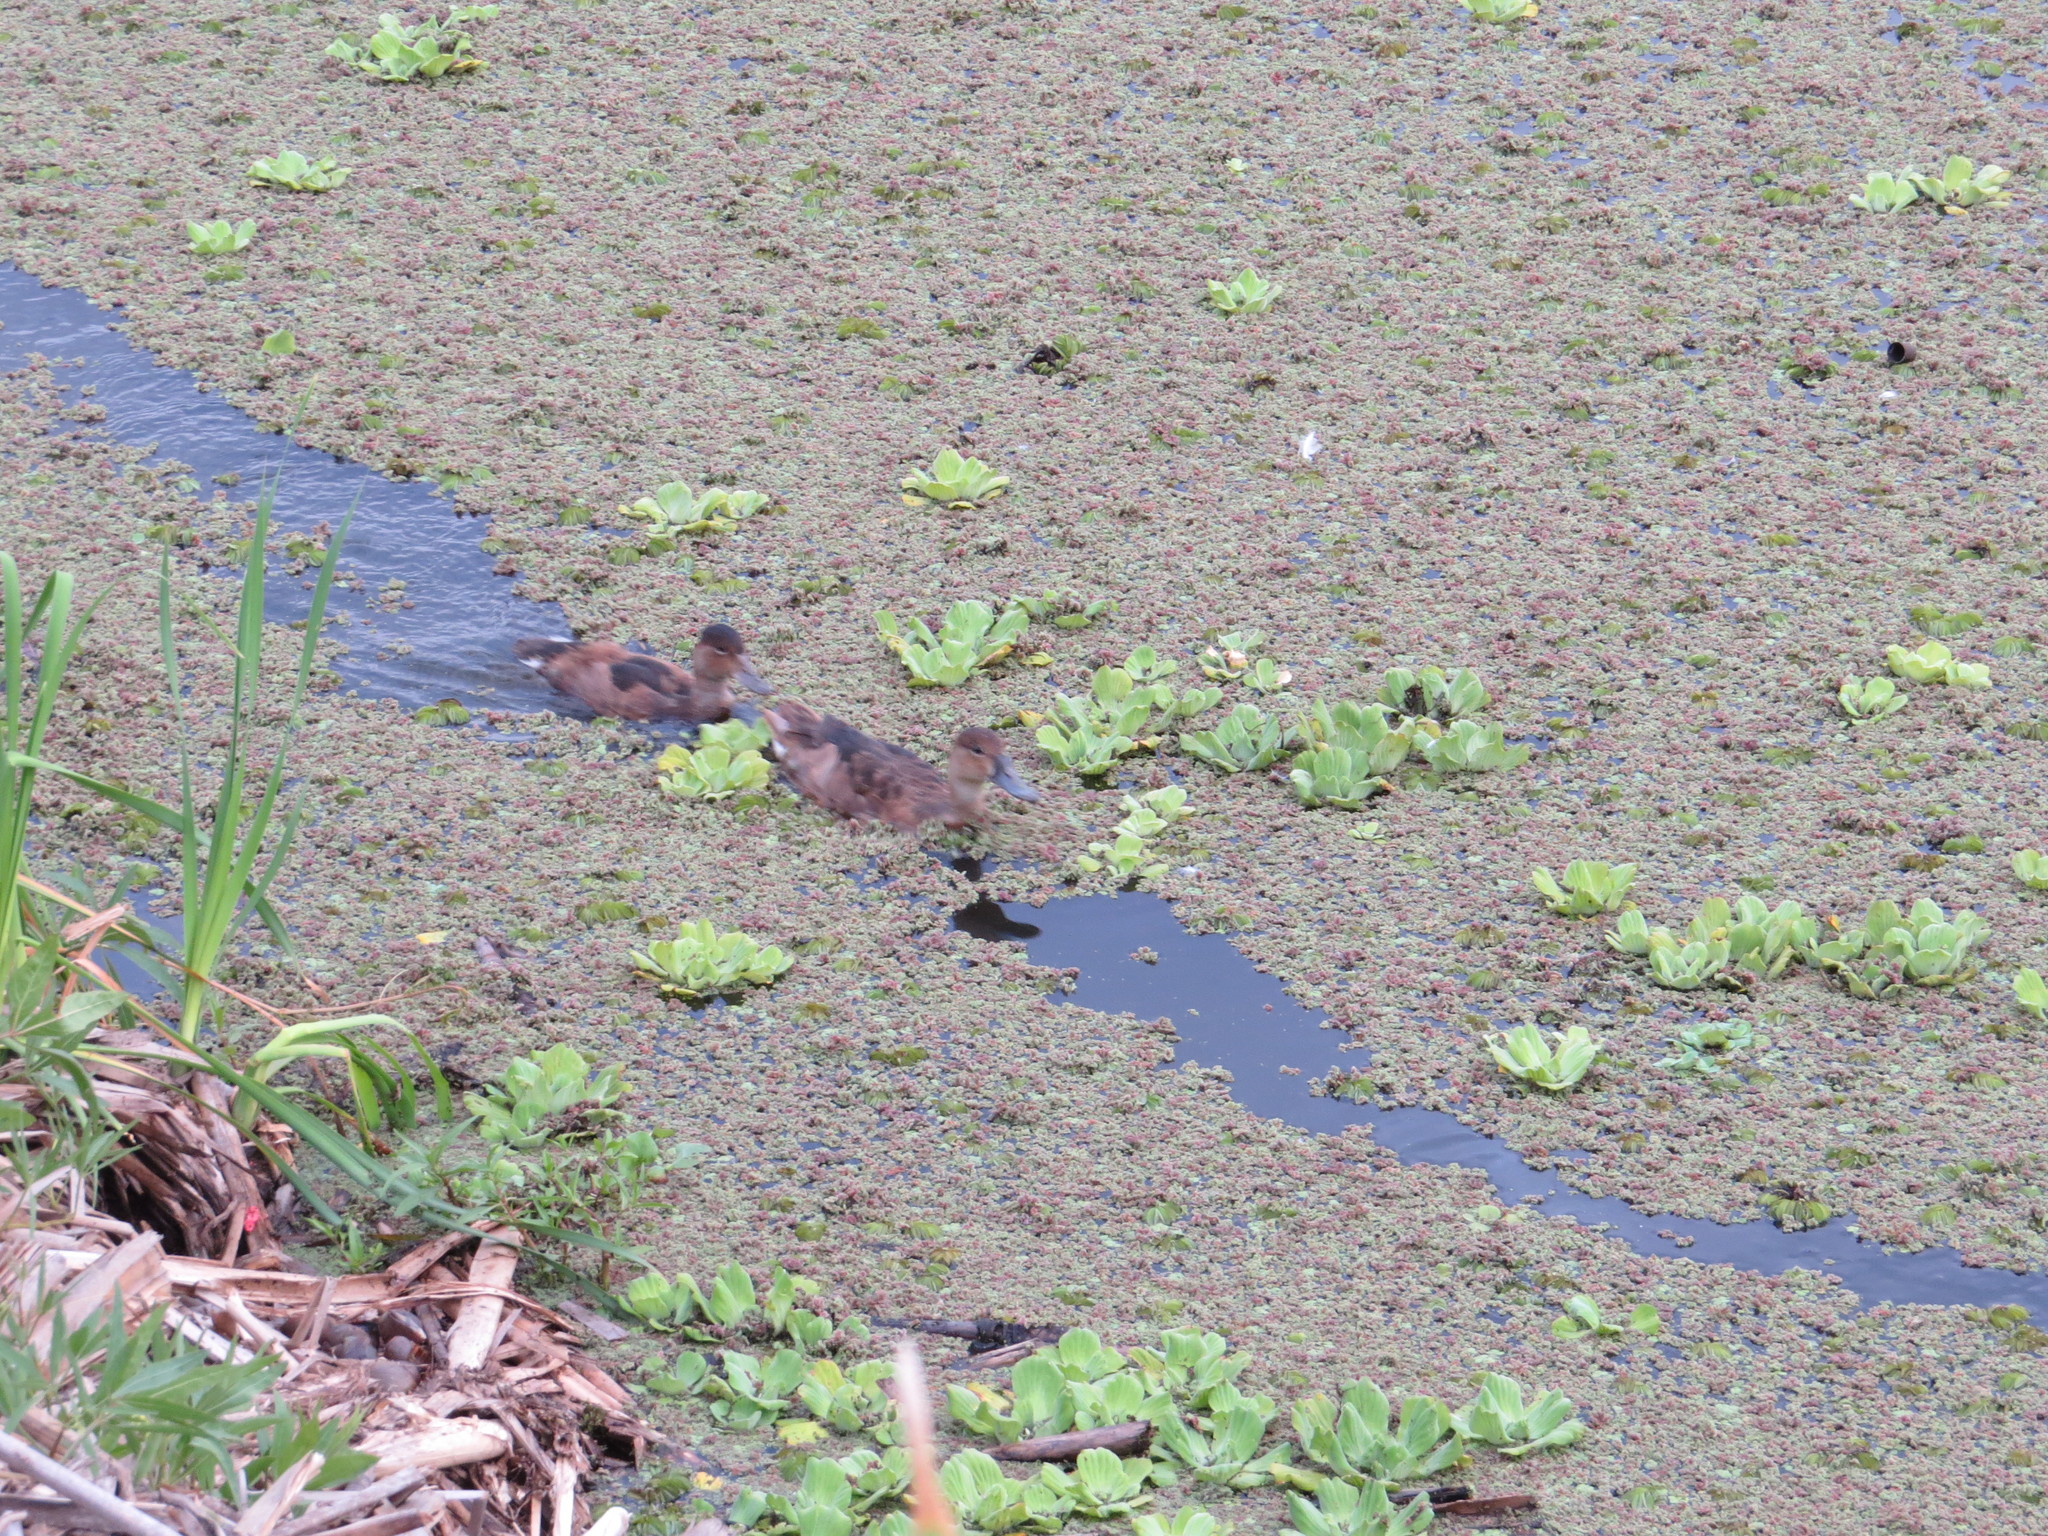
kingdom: Animalia
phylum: Chordata
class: Aves
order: Anseriformes
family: Anatidae
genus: Netta
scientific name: Netta peposaca
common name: Rosy-billed pochard
